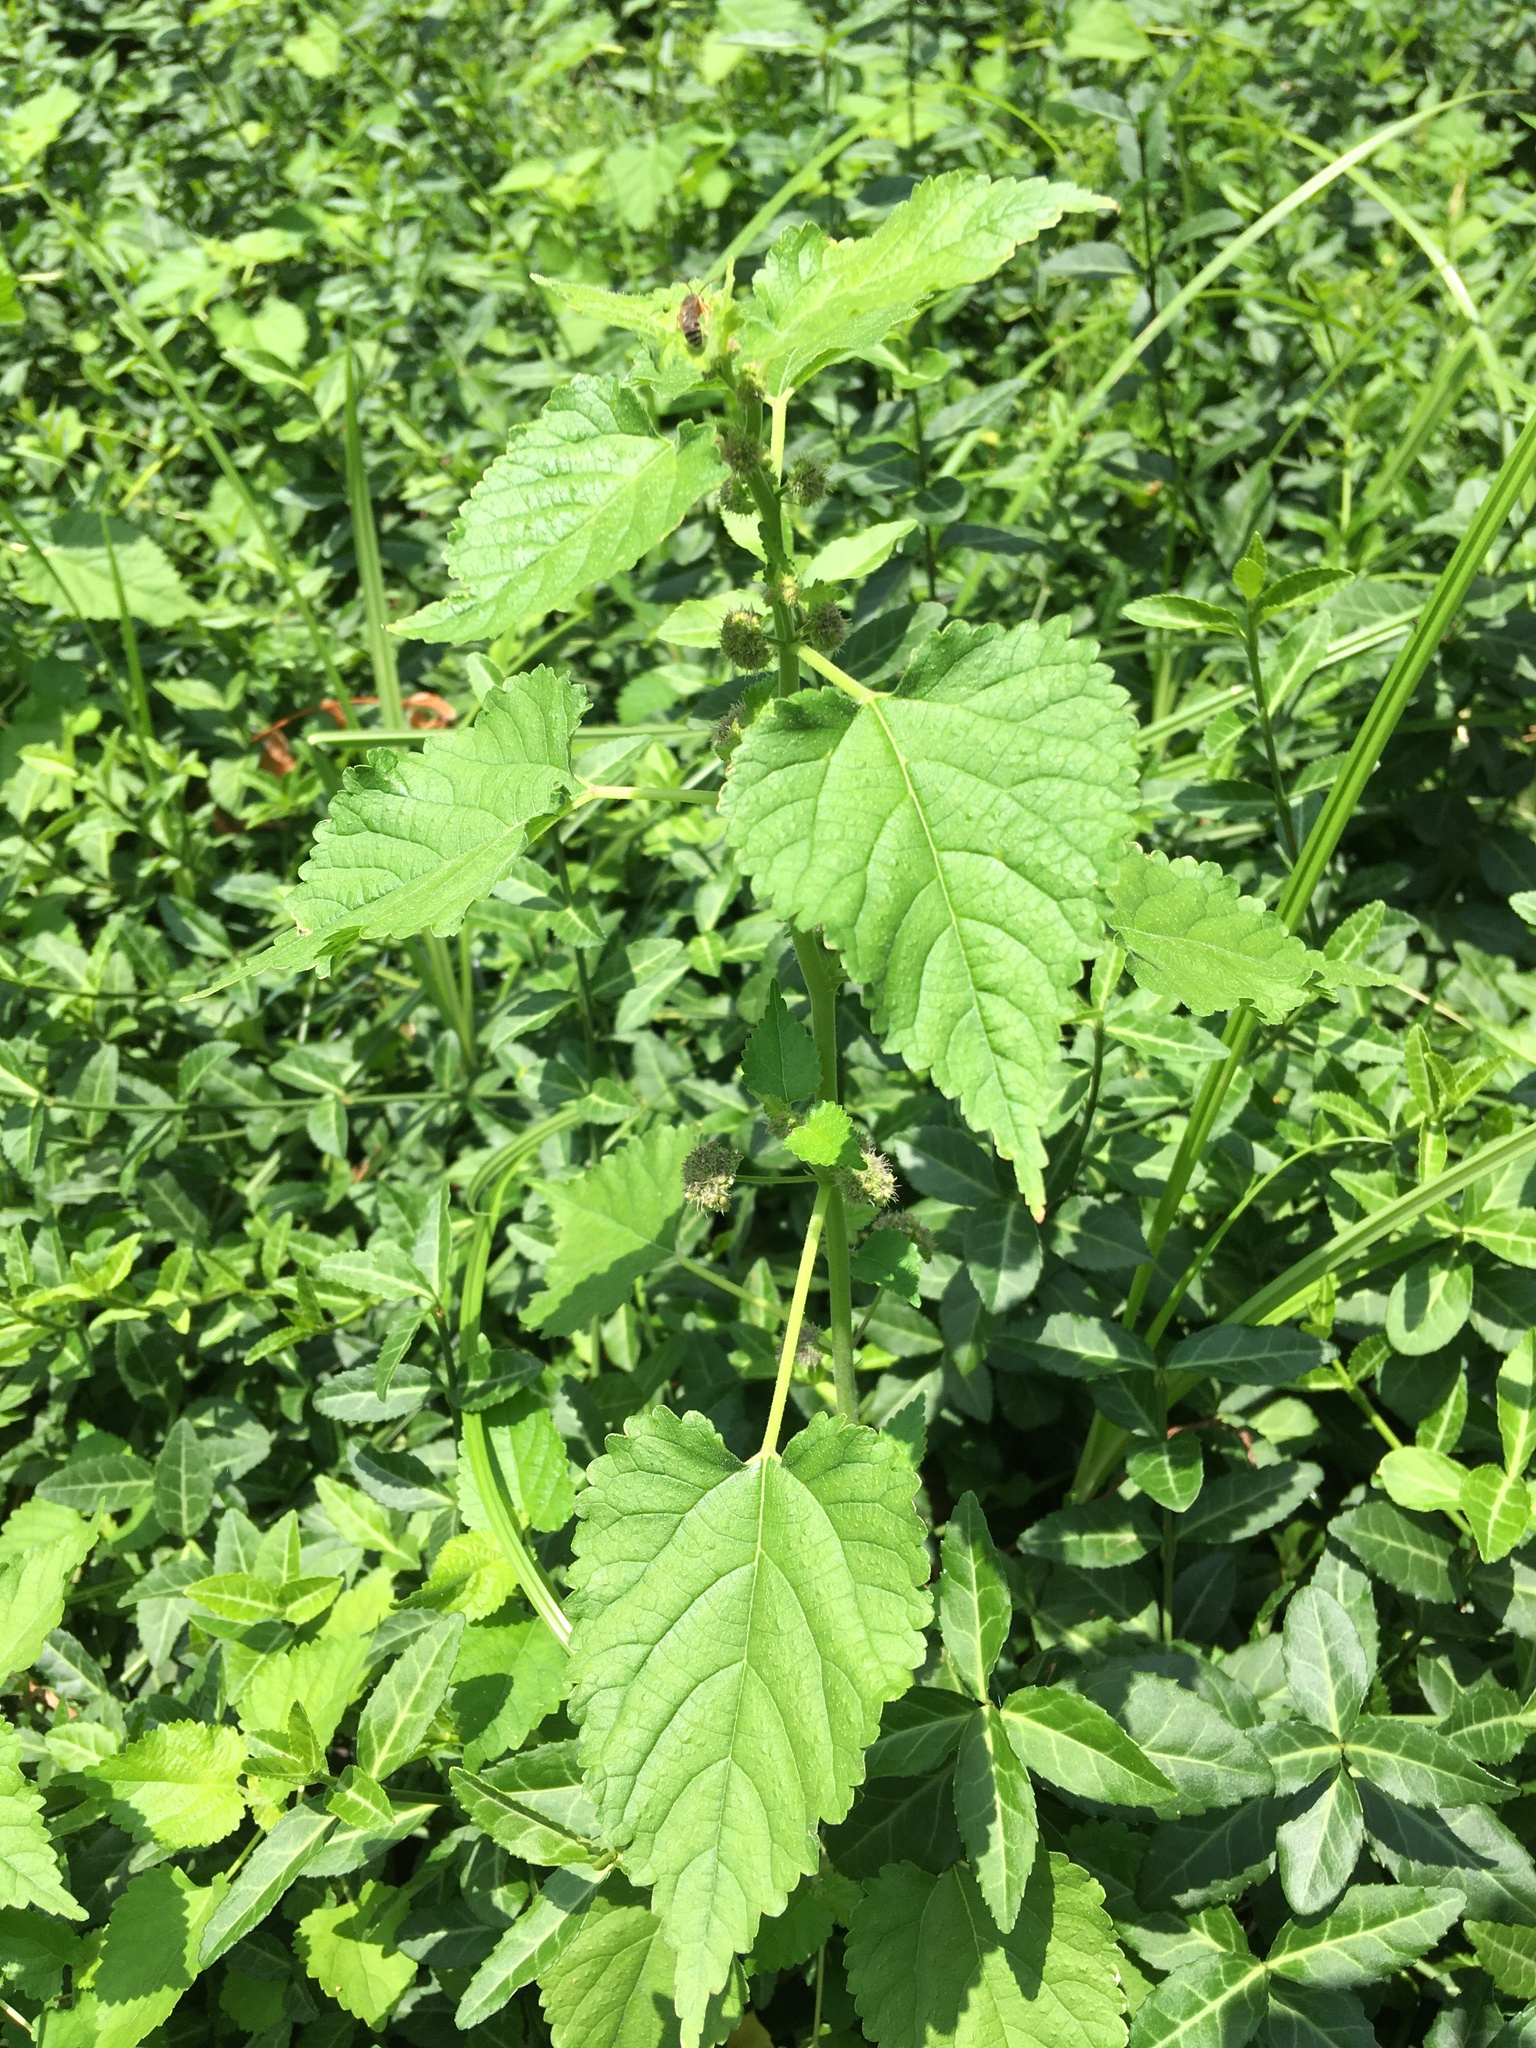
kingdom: Plantae
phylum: Tracheophyta
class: Magnoliopsida
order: Rosales
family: Moraceae
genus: Fatoua
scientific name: Fatoua villosa
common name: Hairy crabweed
